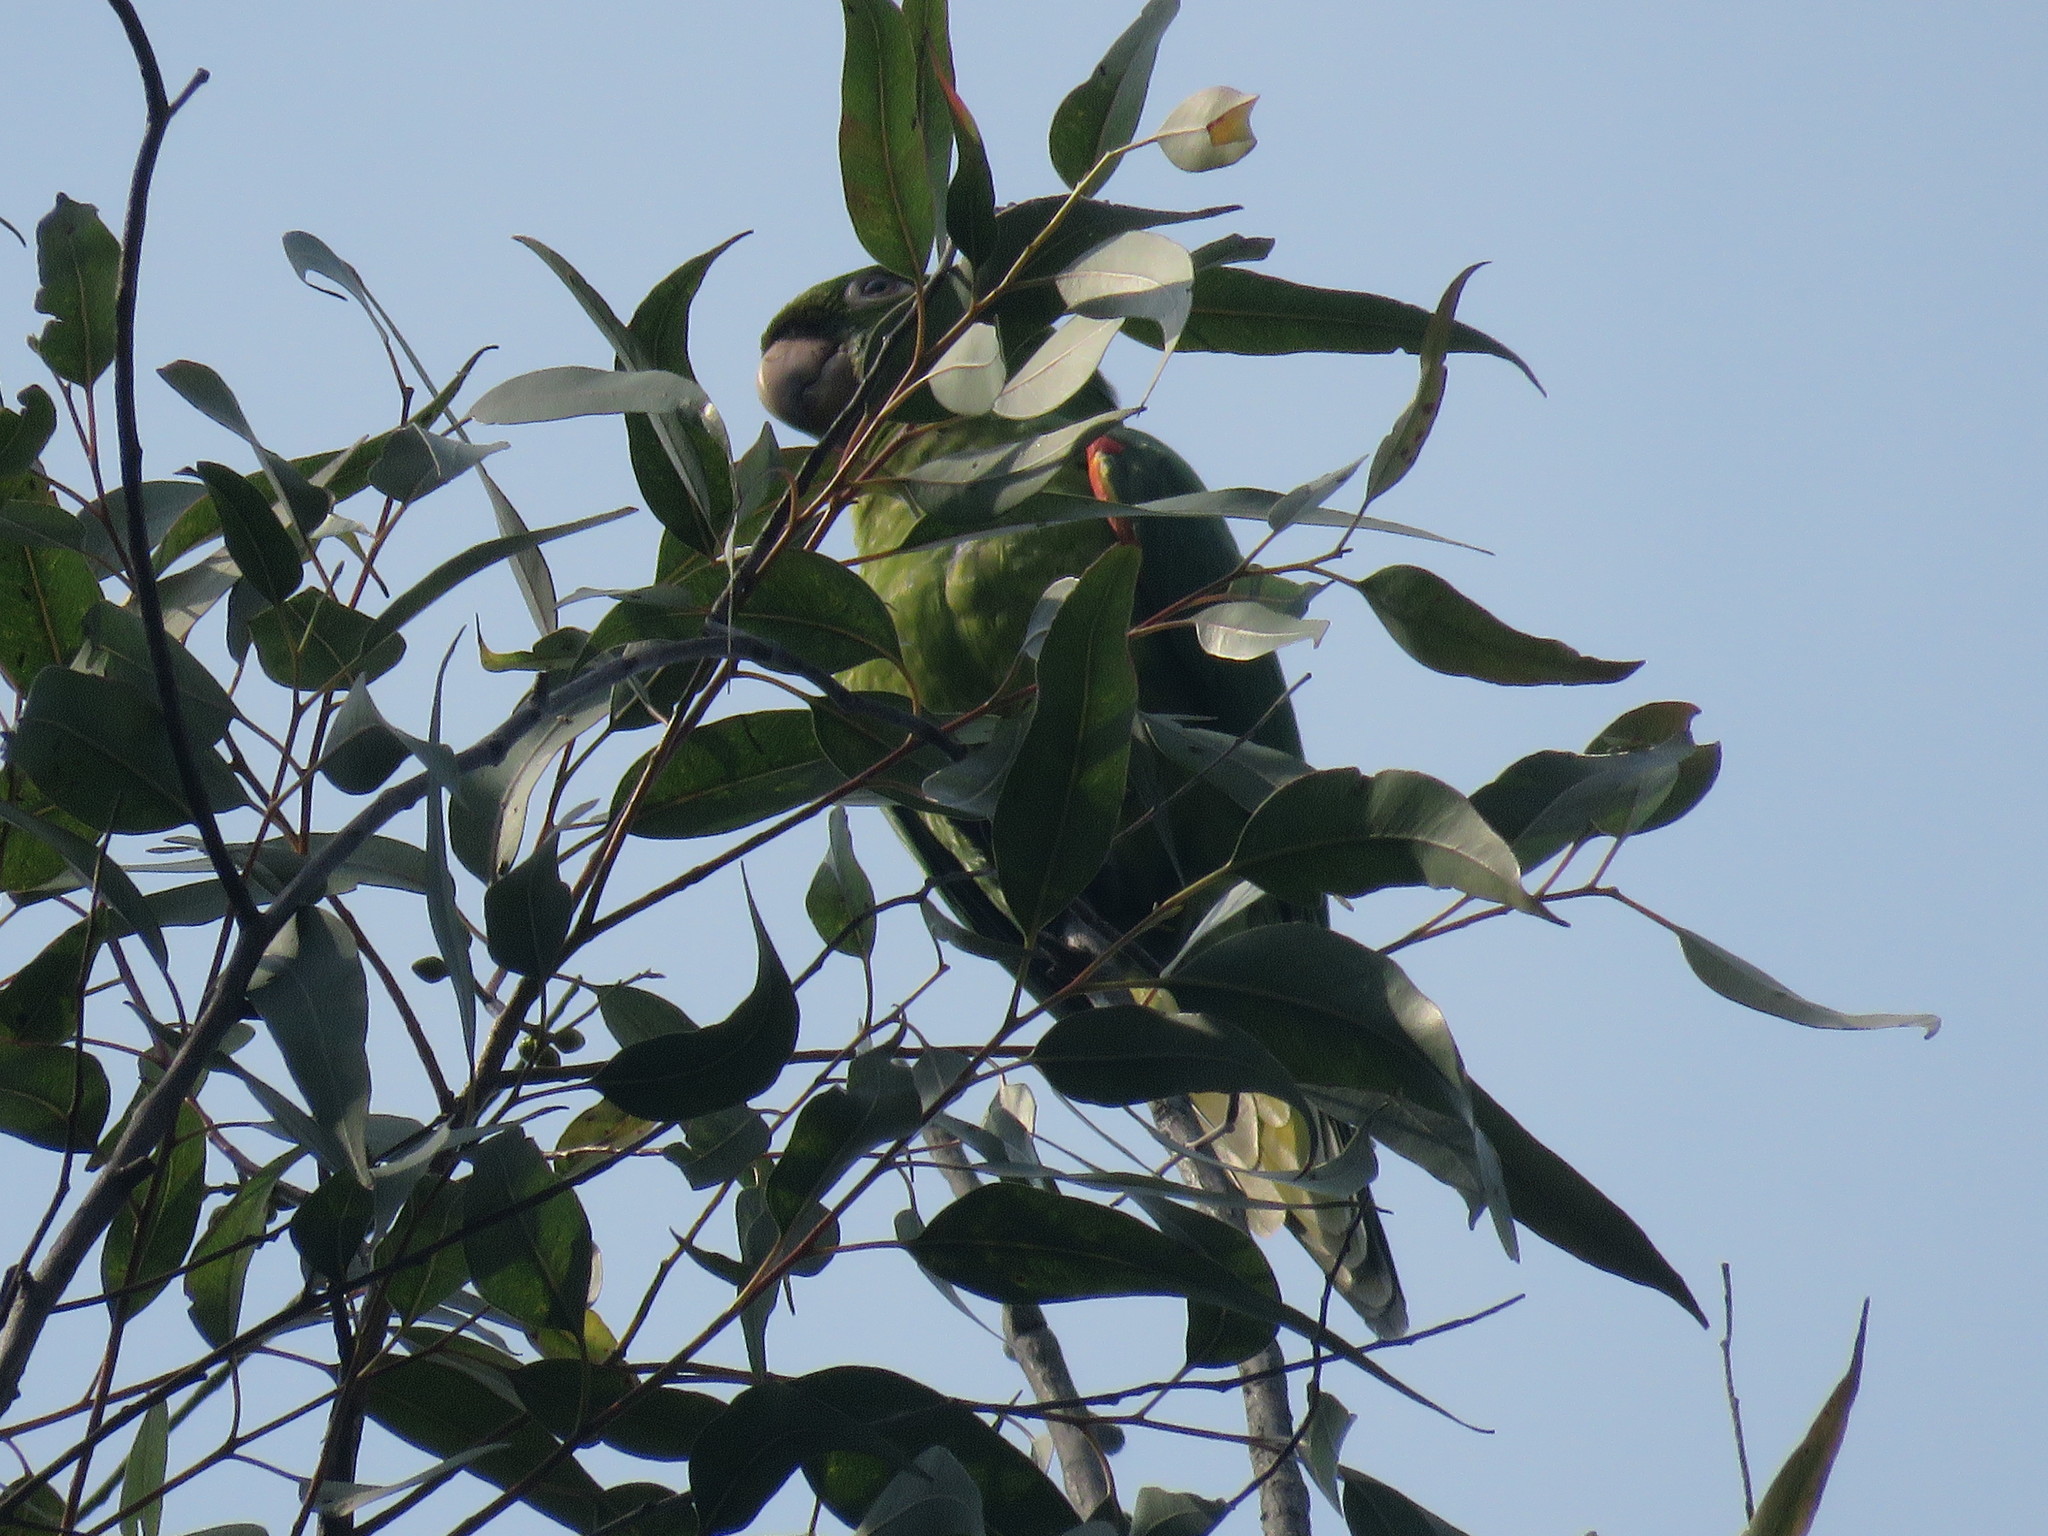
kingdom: Animalia
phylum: Chordata
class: Aves
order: Psittaciformes
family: Psittacidae
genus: Aratinga
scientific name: Aratinga leucophthalma
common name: White-eyed parakeet
